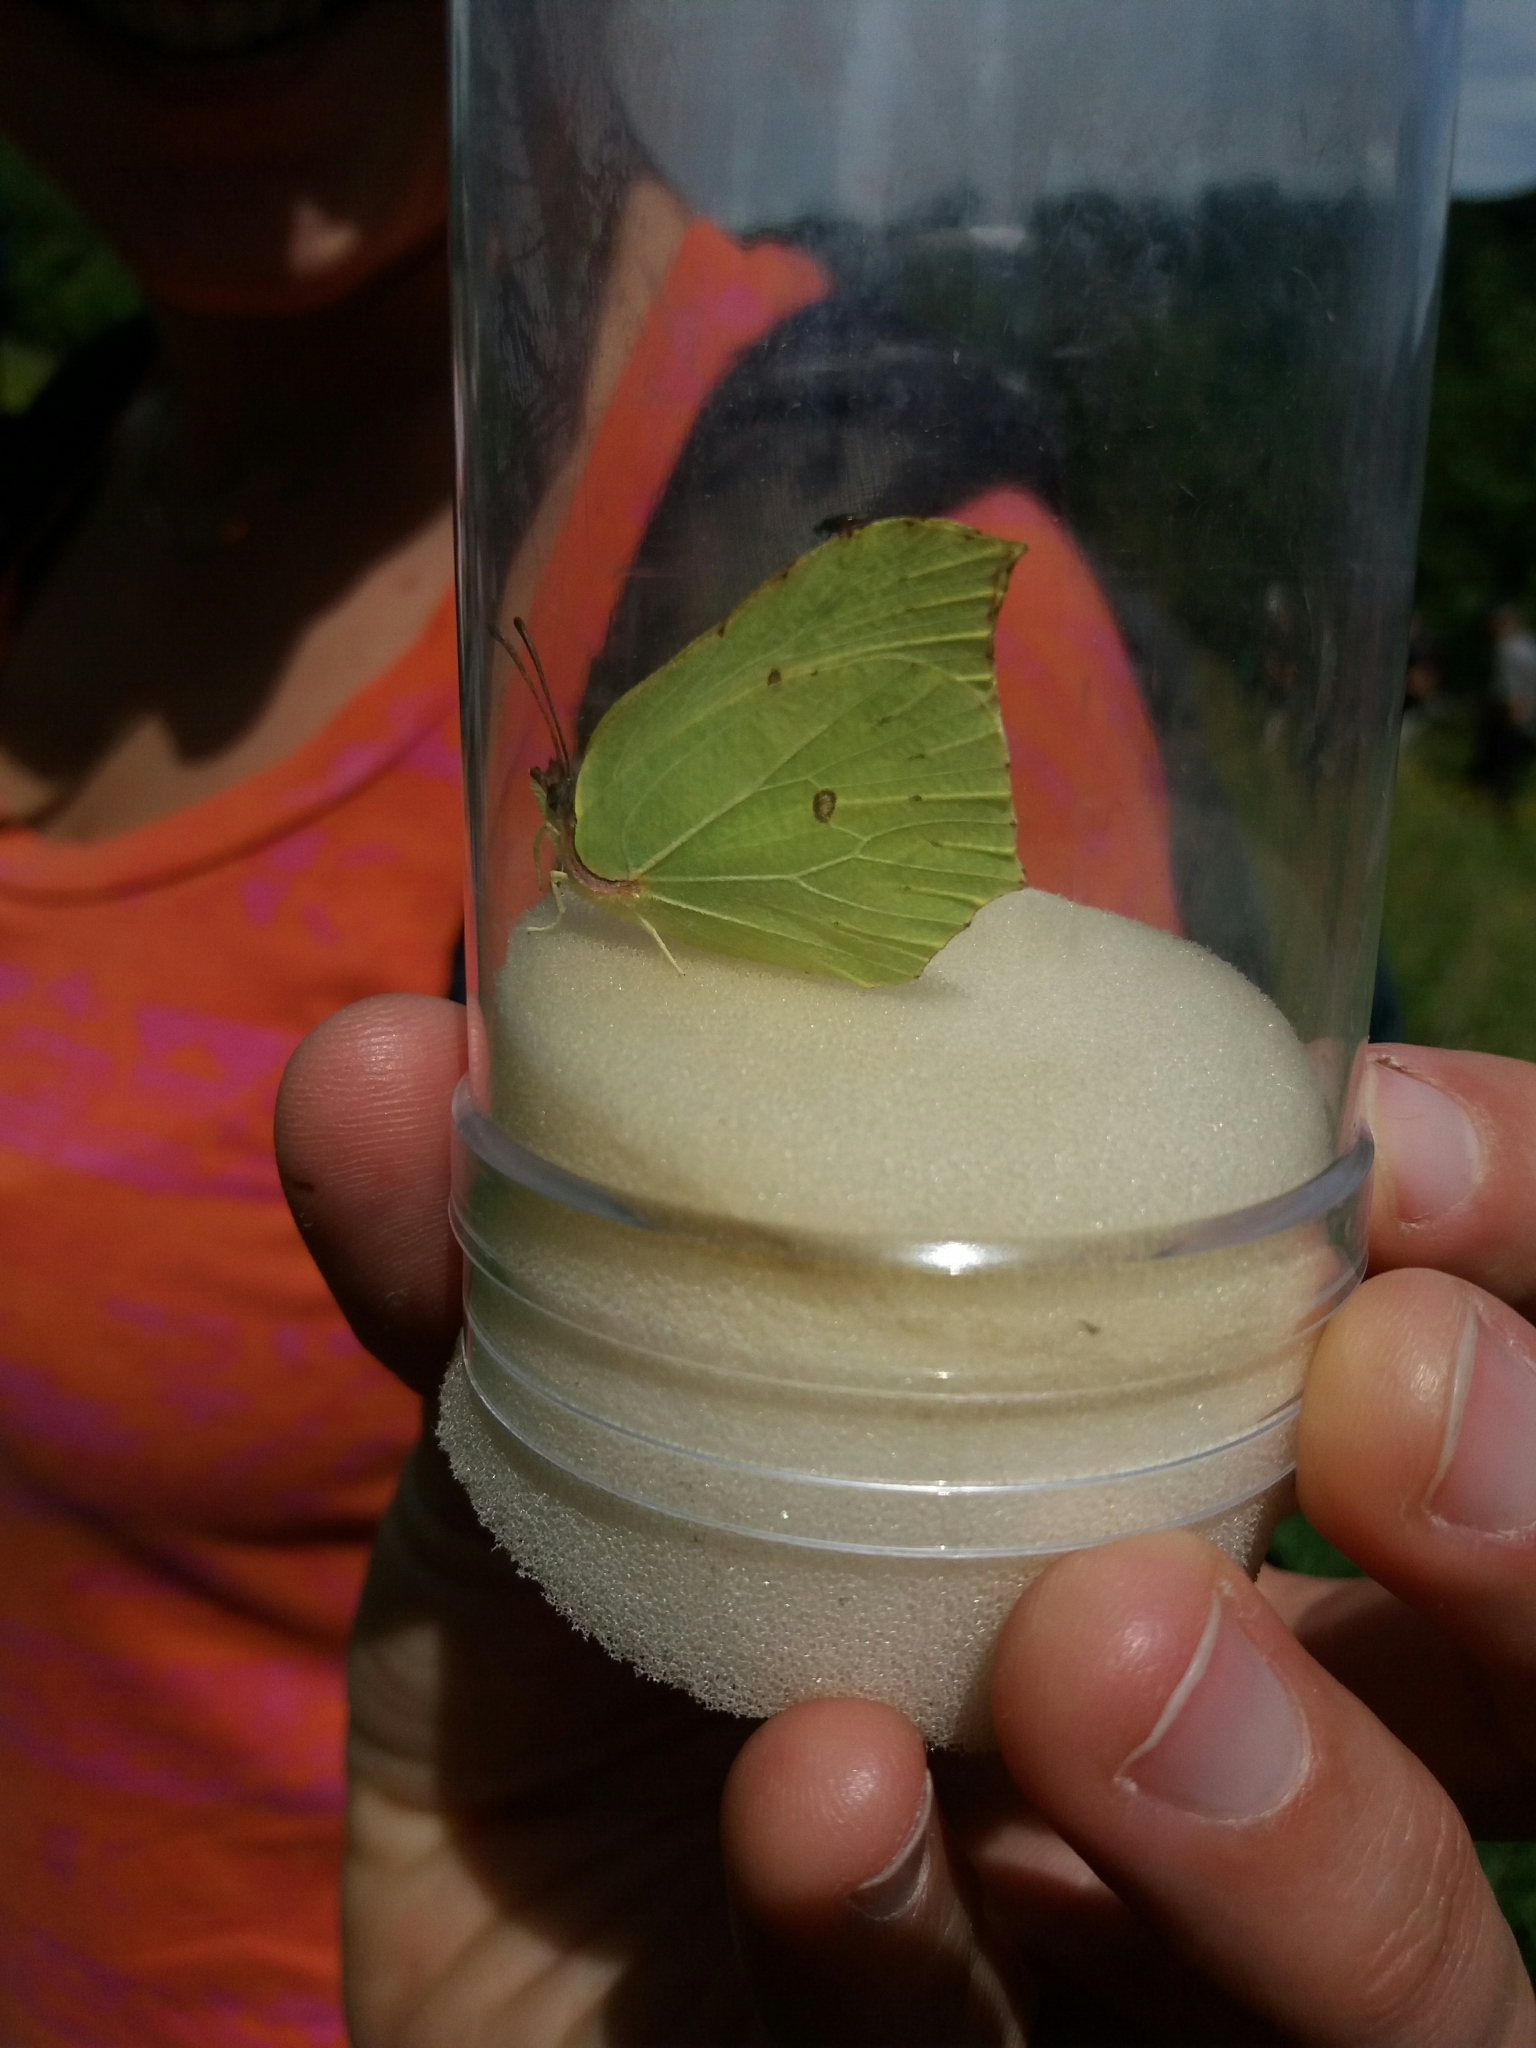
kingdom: Animalia
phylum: Arthropoda
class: Insecta
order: Lepidoptera
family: Pieridae
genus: Gonepteryx
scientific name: Gonepteryx rhamni
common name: Brimstone
